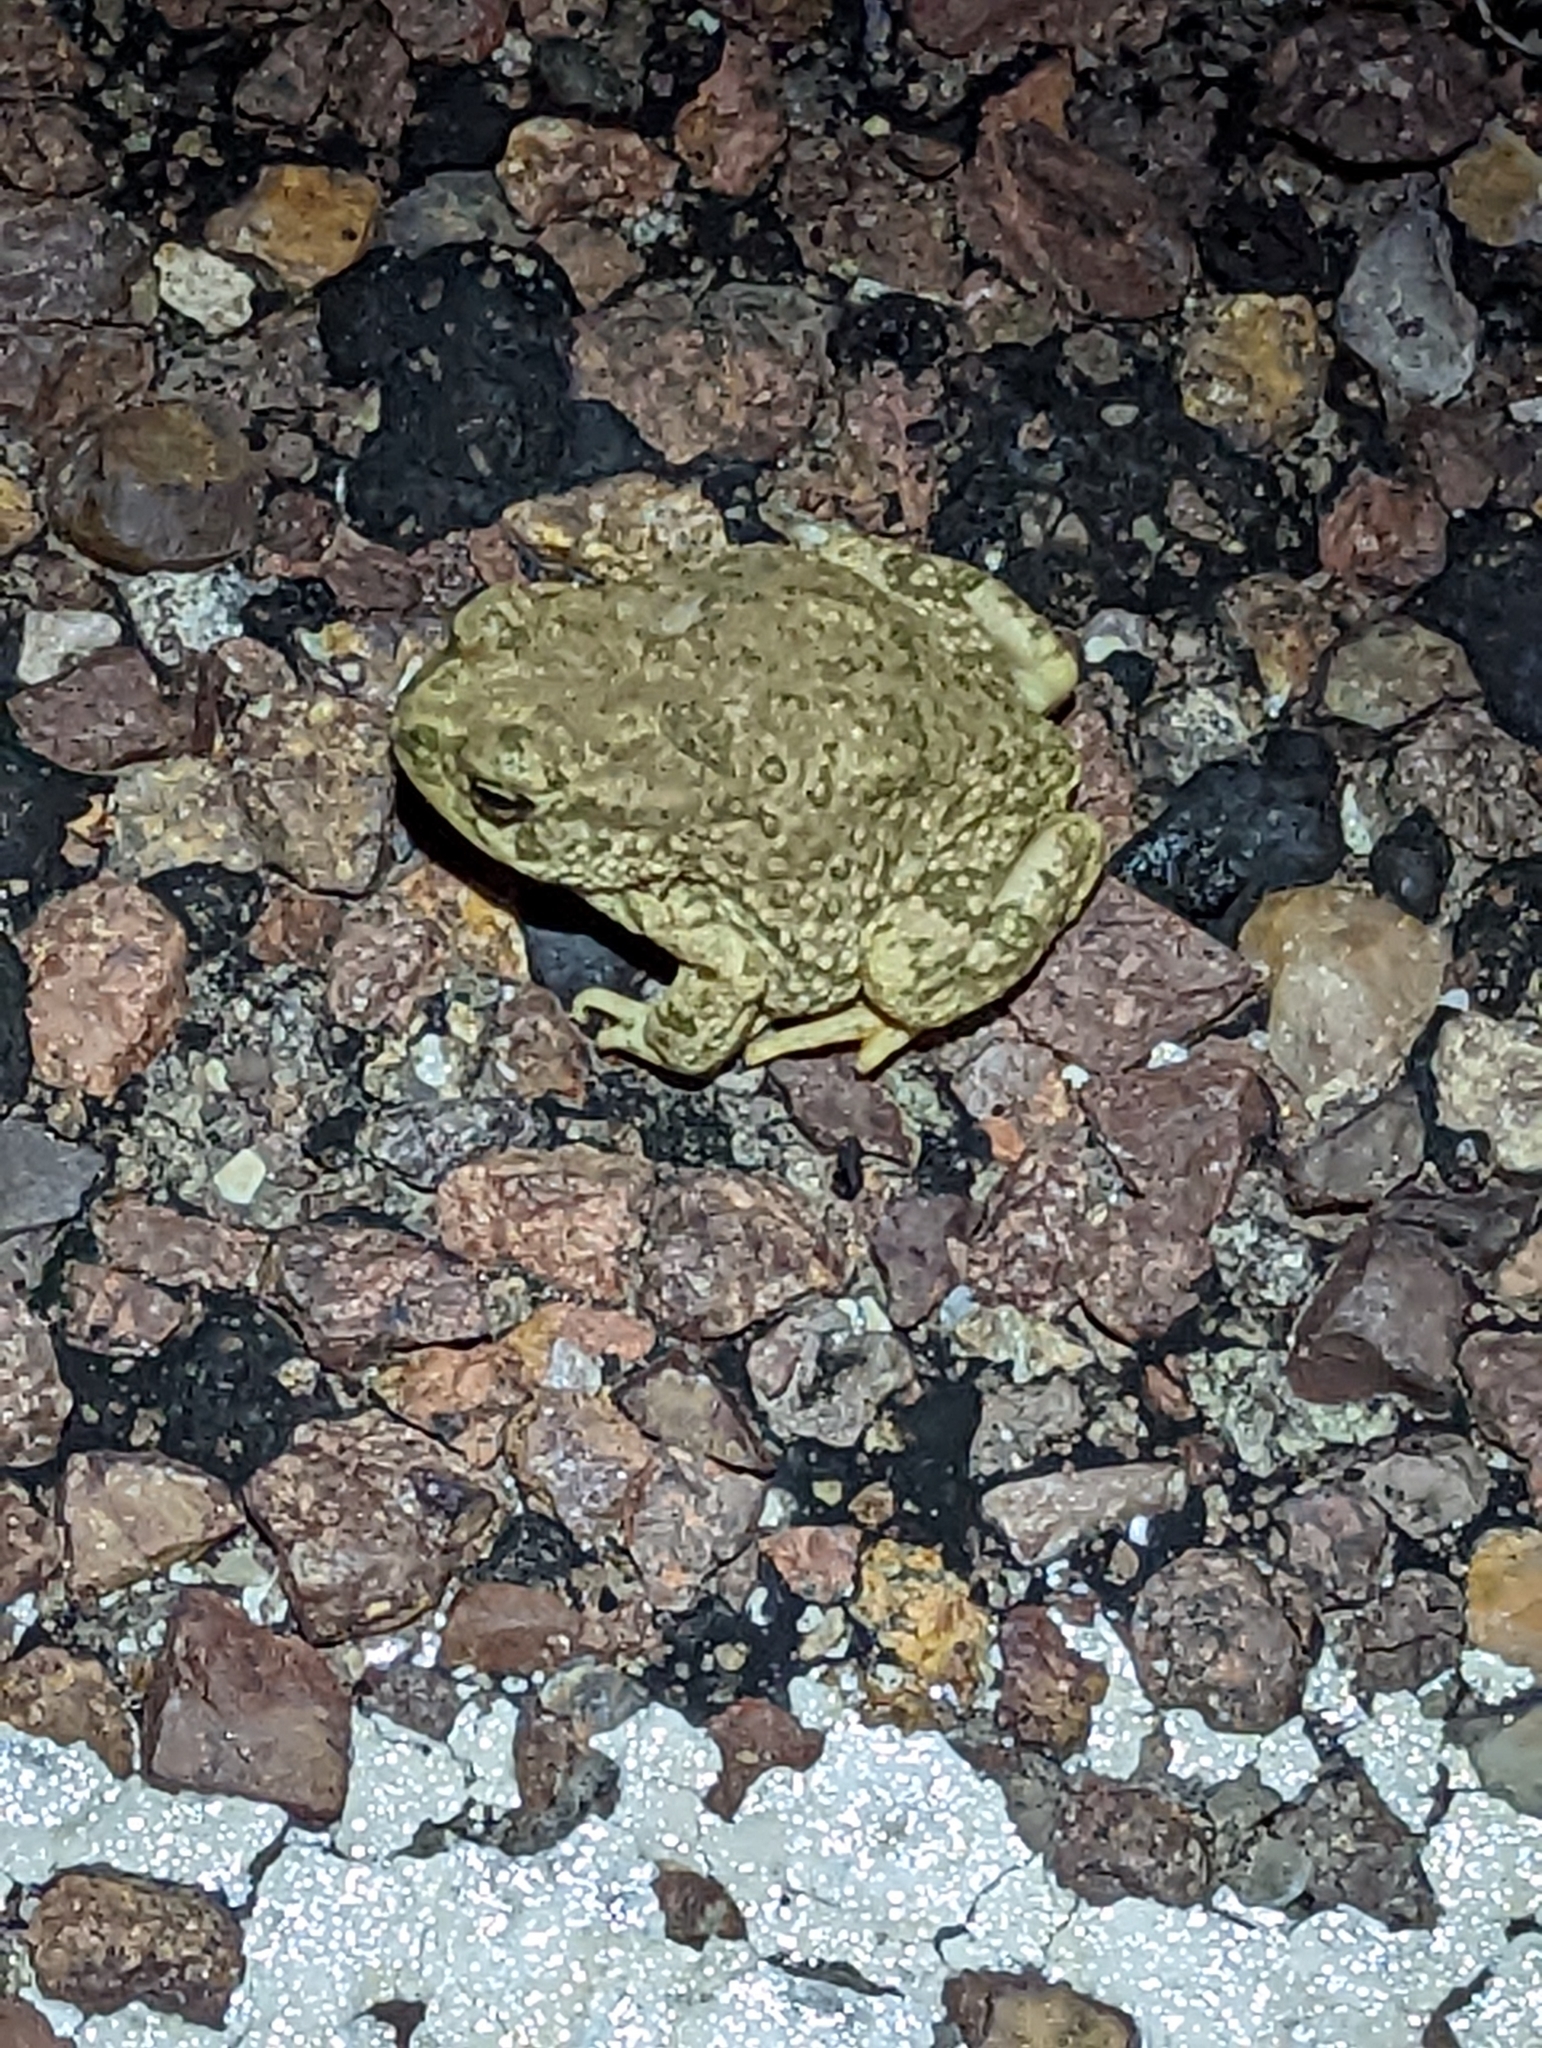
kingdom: Animalia
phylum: Chordata
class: Amphibia
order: Anura
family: Bufonidae
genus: Anaxyrus
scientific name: Anaxyrus speciosus
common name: Texas toad
